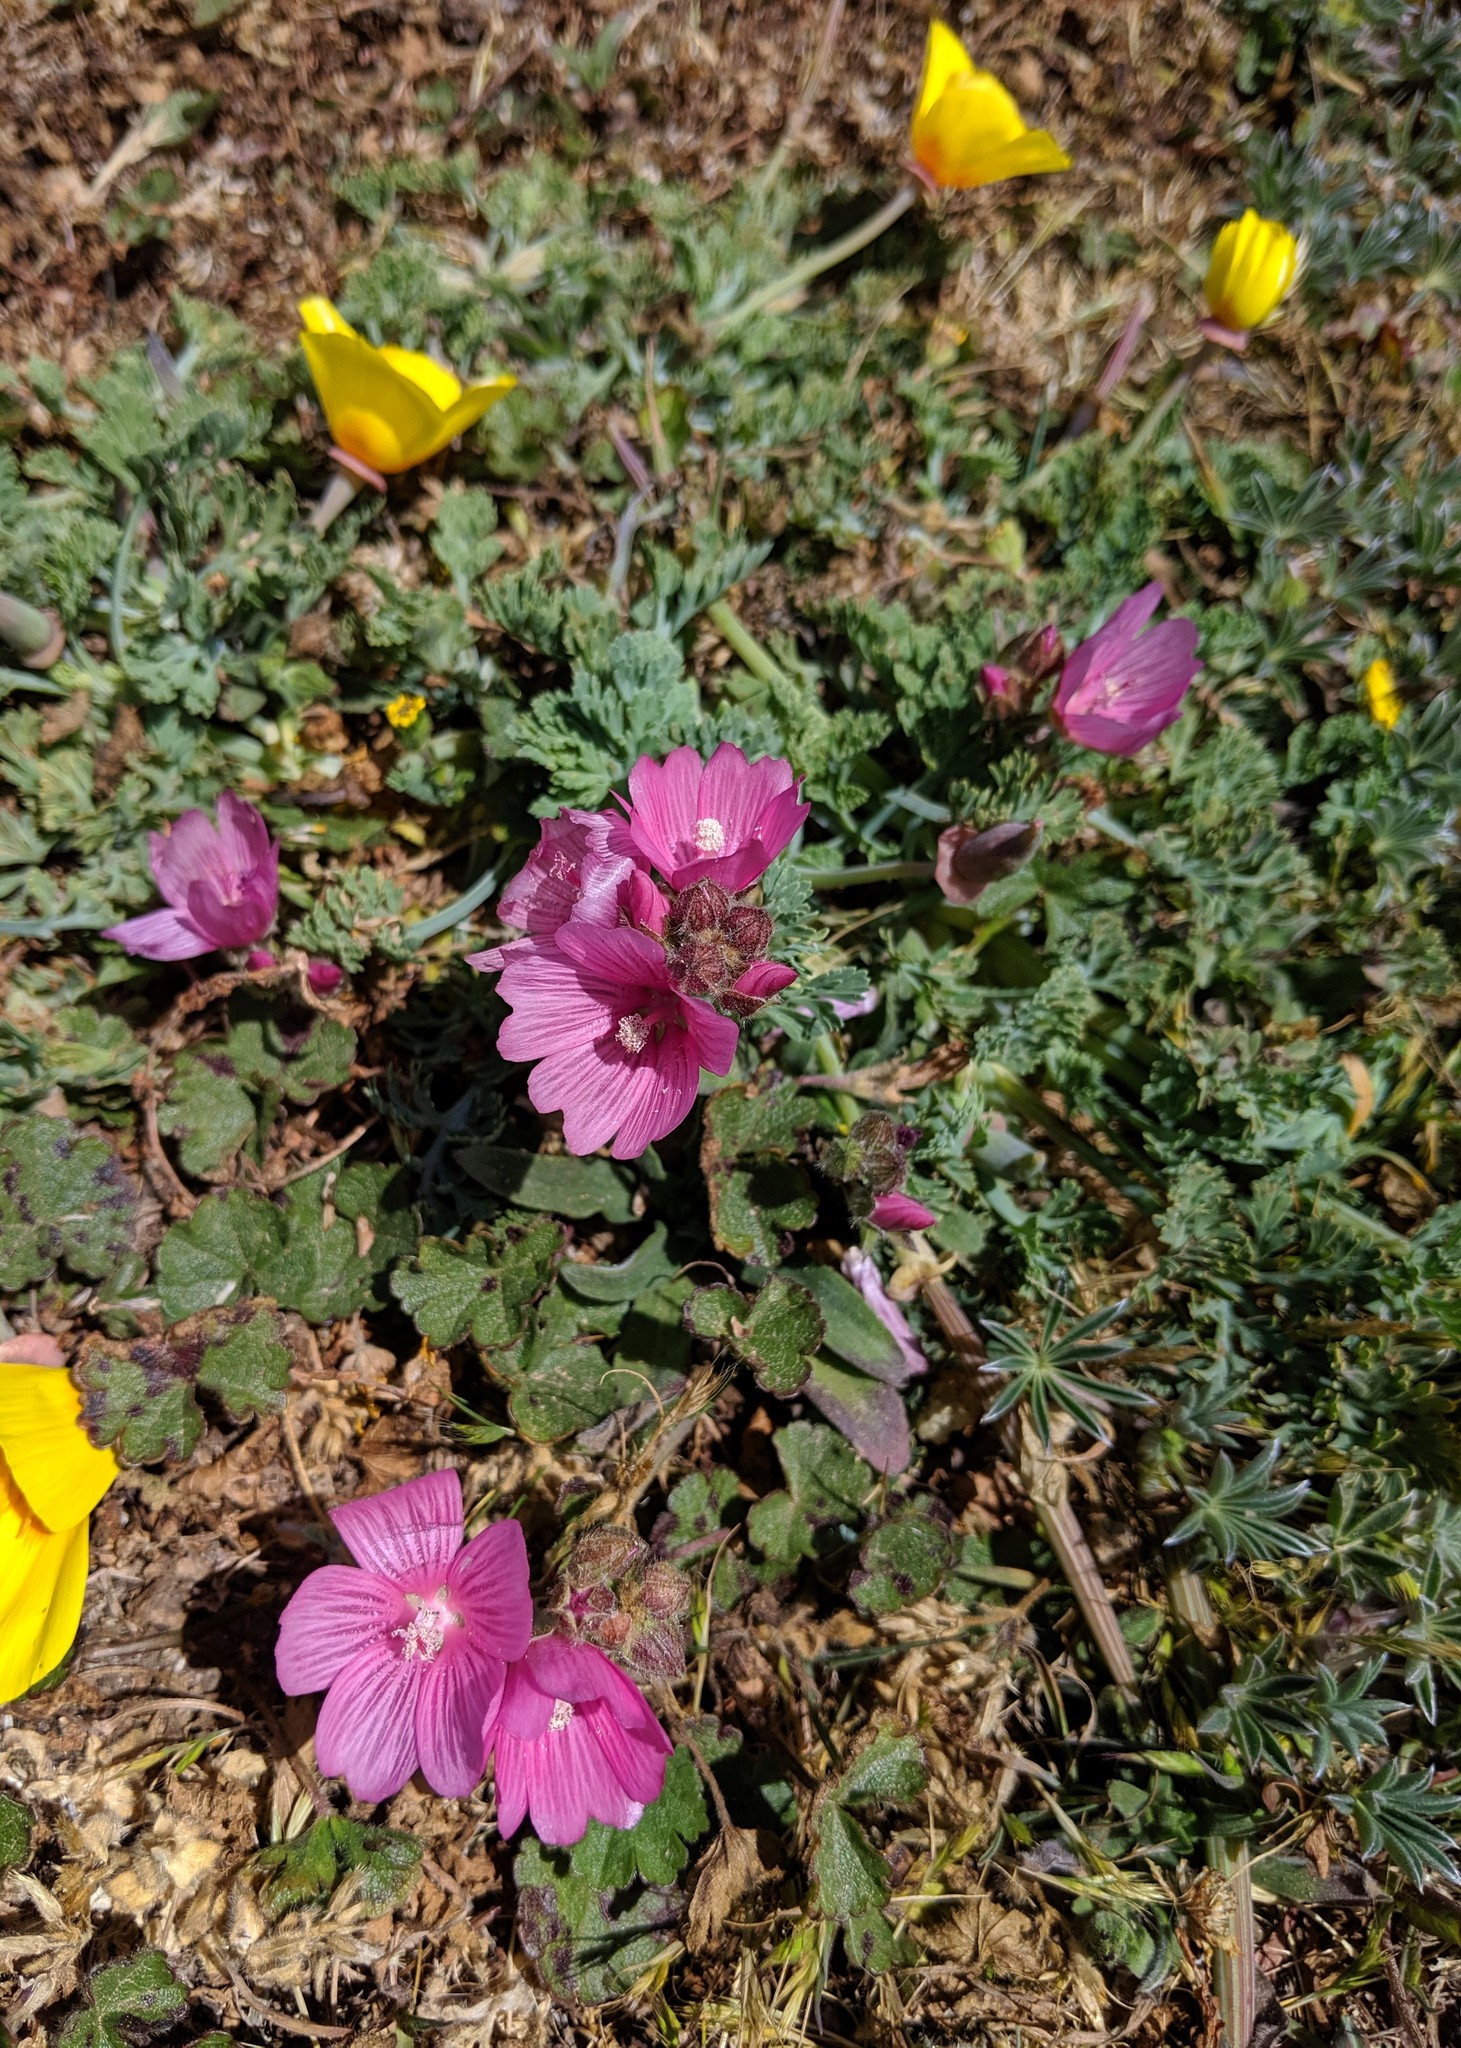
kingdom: Plantae
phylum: Tracheophyta
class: Magnoliopsida
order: Malvales
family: Malvaceae
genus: Sidalcea
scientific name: Sidalcea malviflora
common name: Greek mallow
